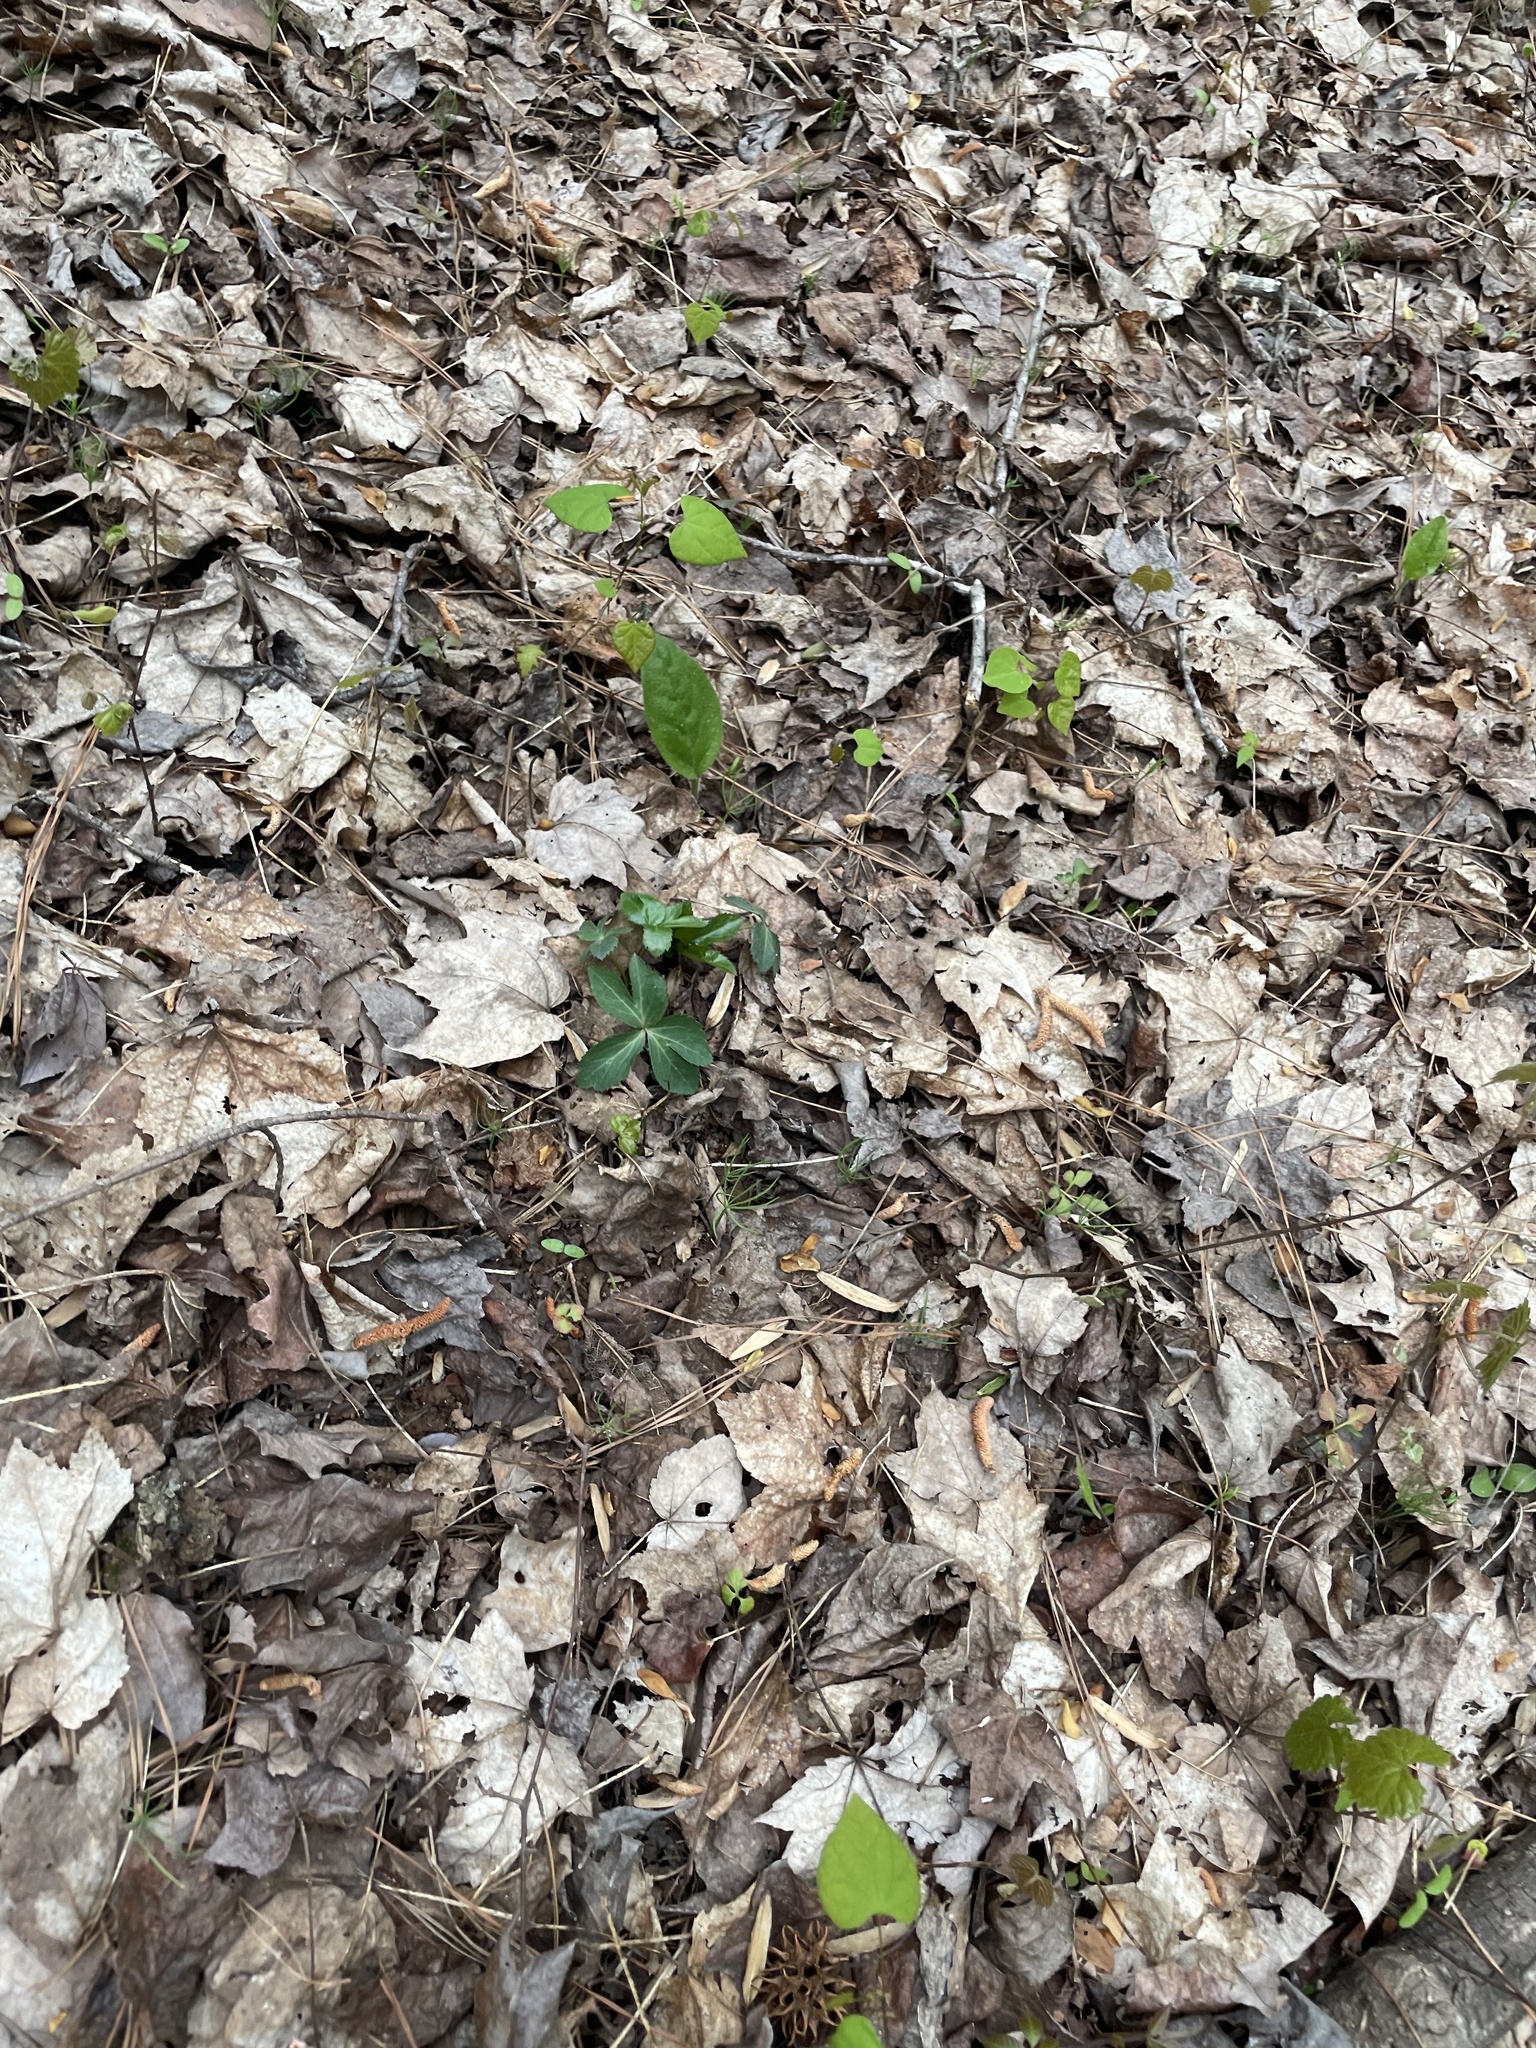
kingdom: Plantae
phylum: Tracheophyta
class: Magnoliopsida
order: Apiales
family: Apiaceae
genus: Sanicula
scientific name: Sanicula smallii
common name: Small's black snakeroot
